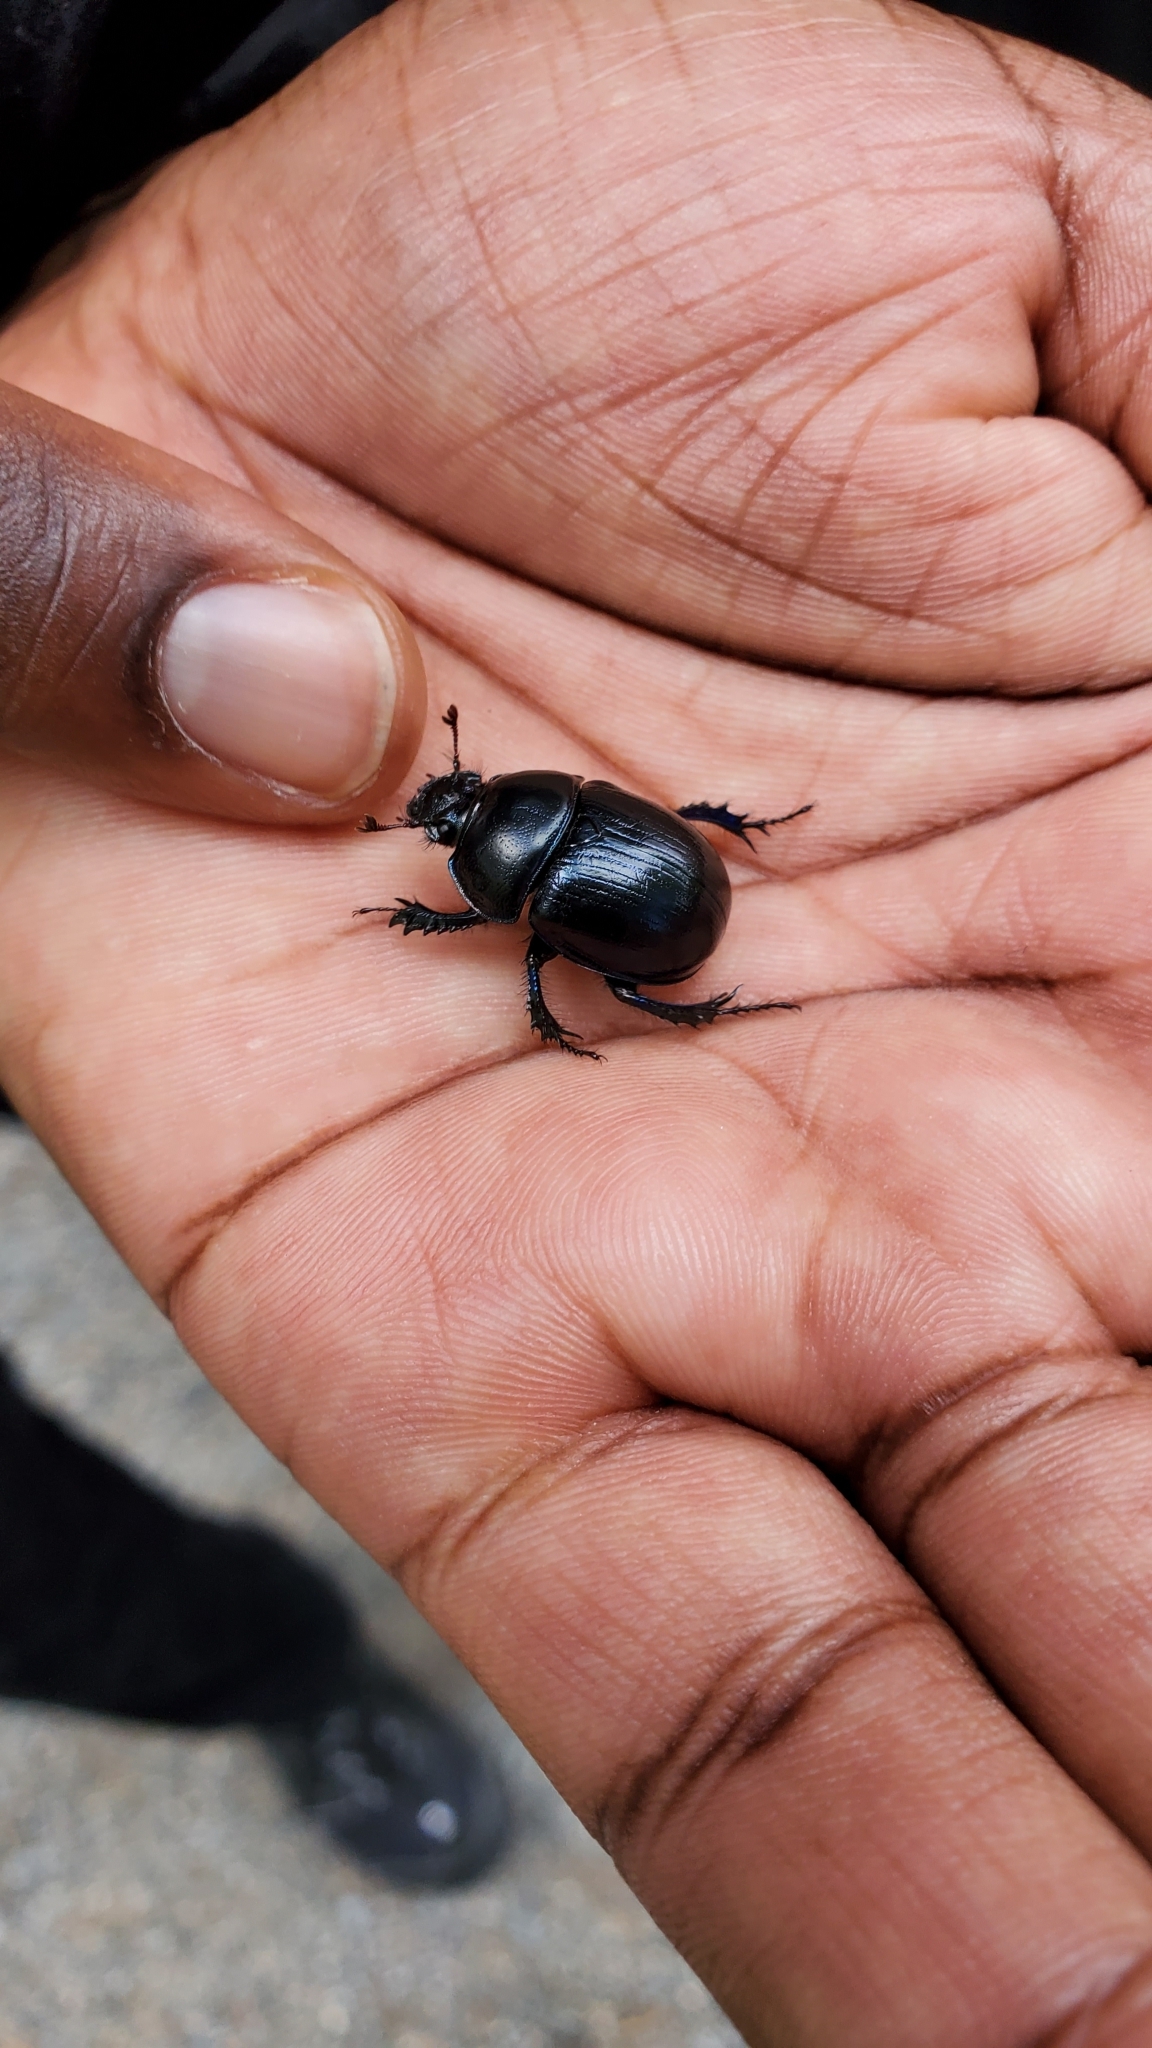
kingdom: Animalia
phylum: Arthropoda
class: Insecta
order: Coleoptera
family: Geotrupidae
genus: Anoplotrupes
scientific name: Anoplotrupes stercorosus
